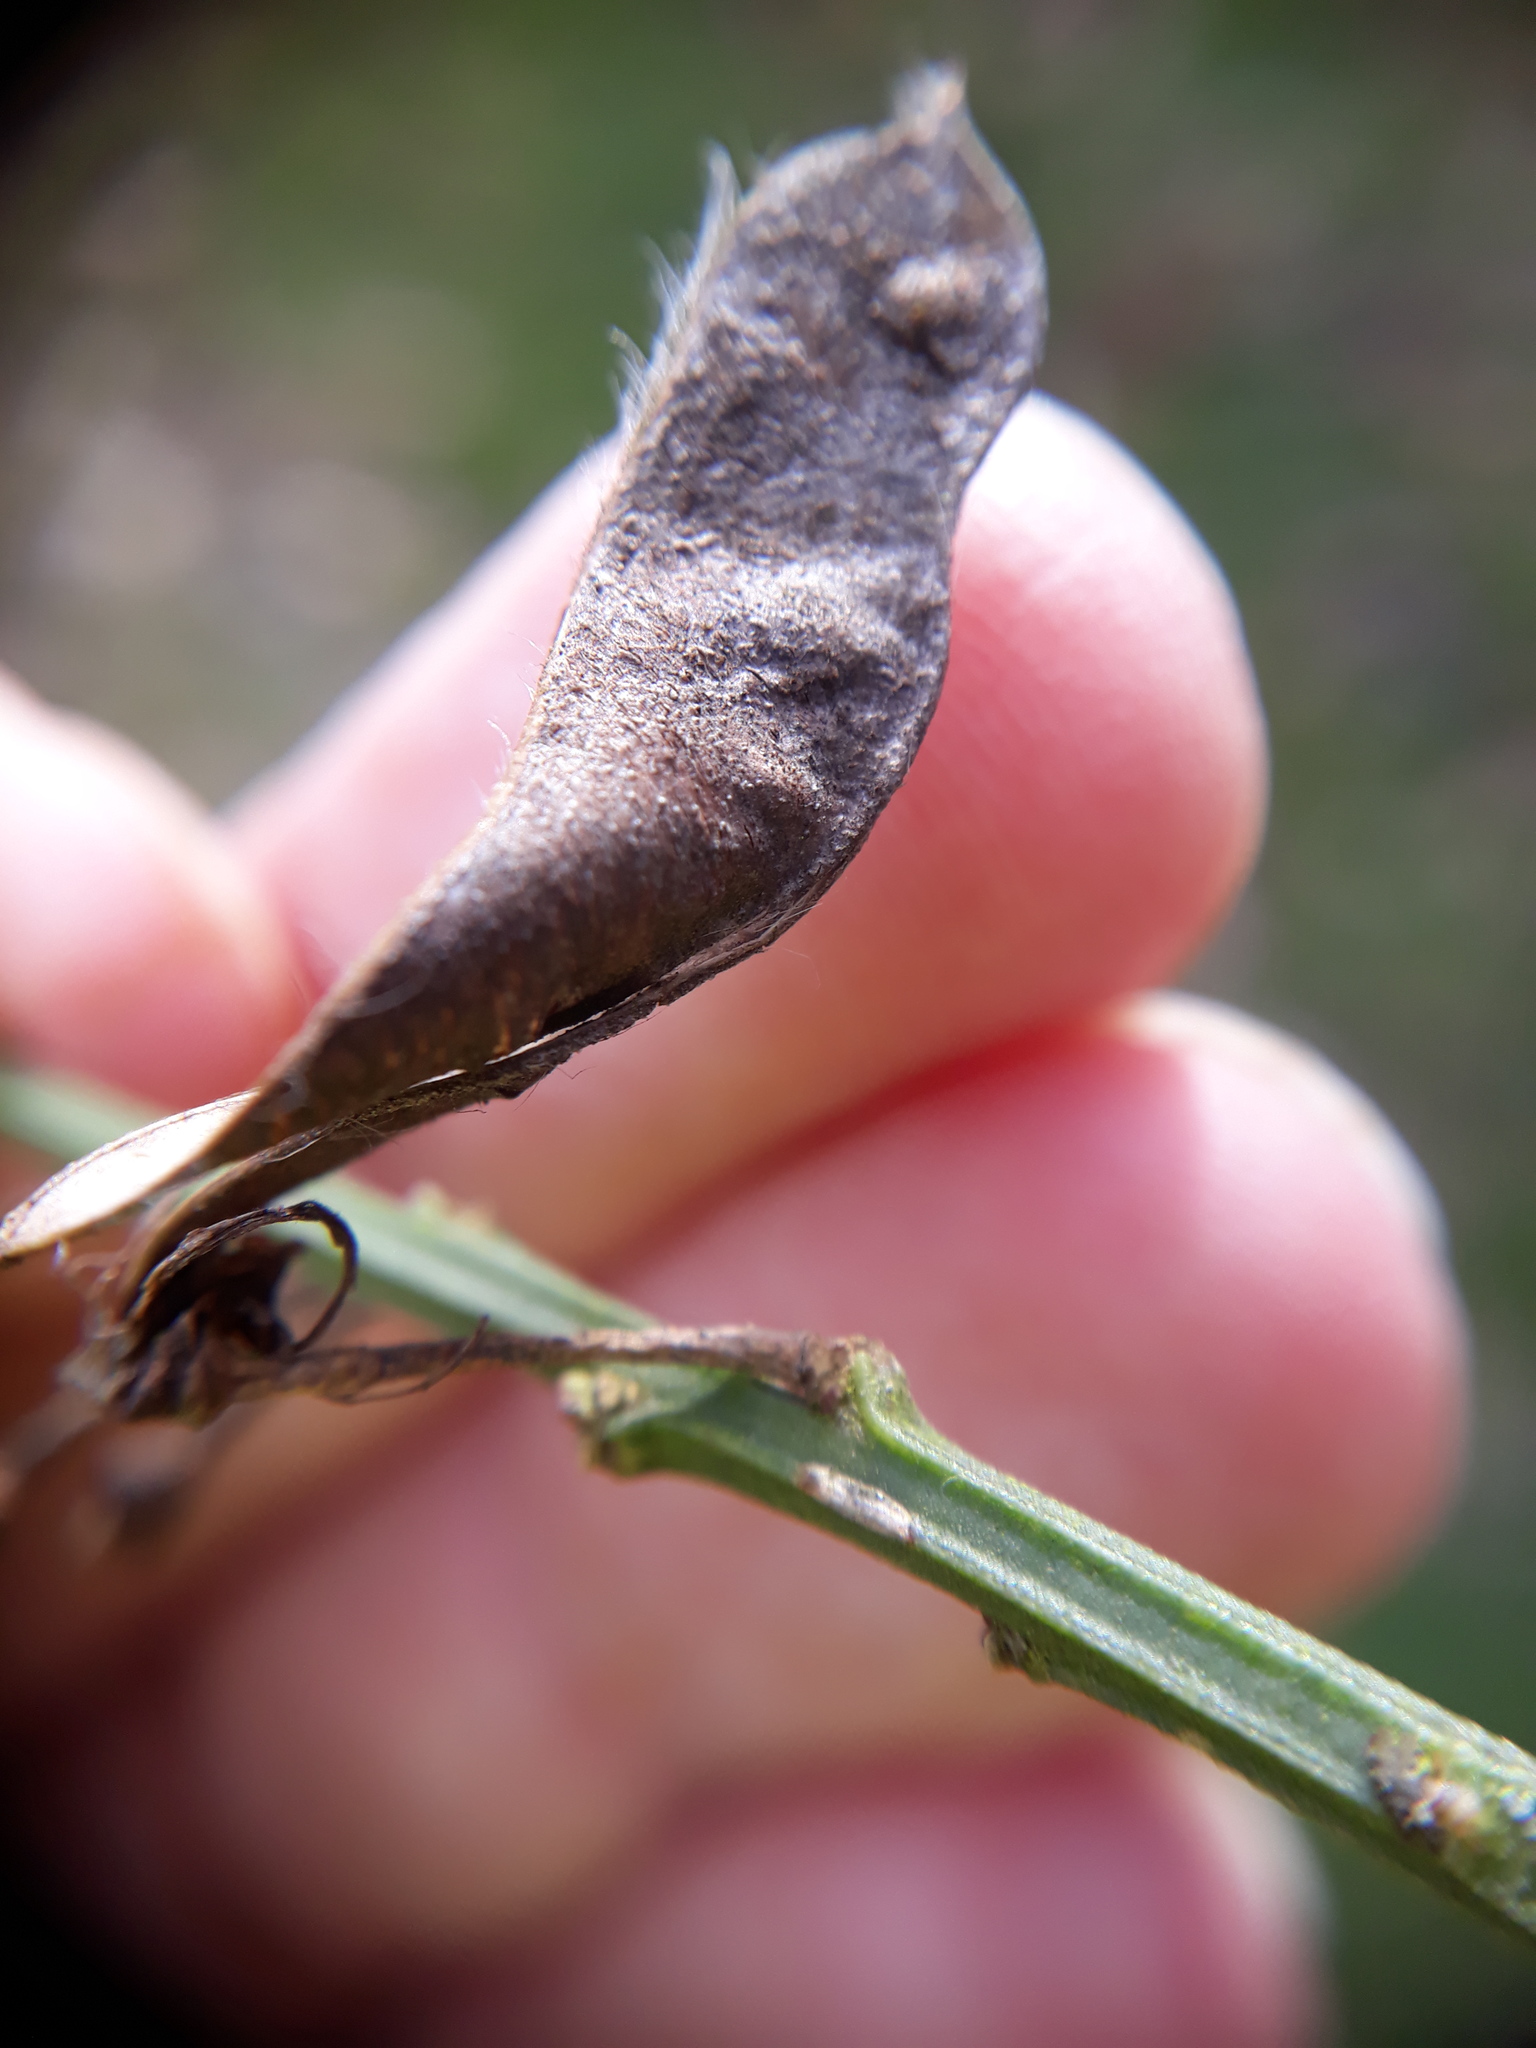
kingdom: Plantae
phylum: Tracheophyta
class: Magnoliopsida
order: Fabales
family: Fabaceae
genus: Cytisus
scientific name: Cytisus scoparius
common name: Scotch broom
